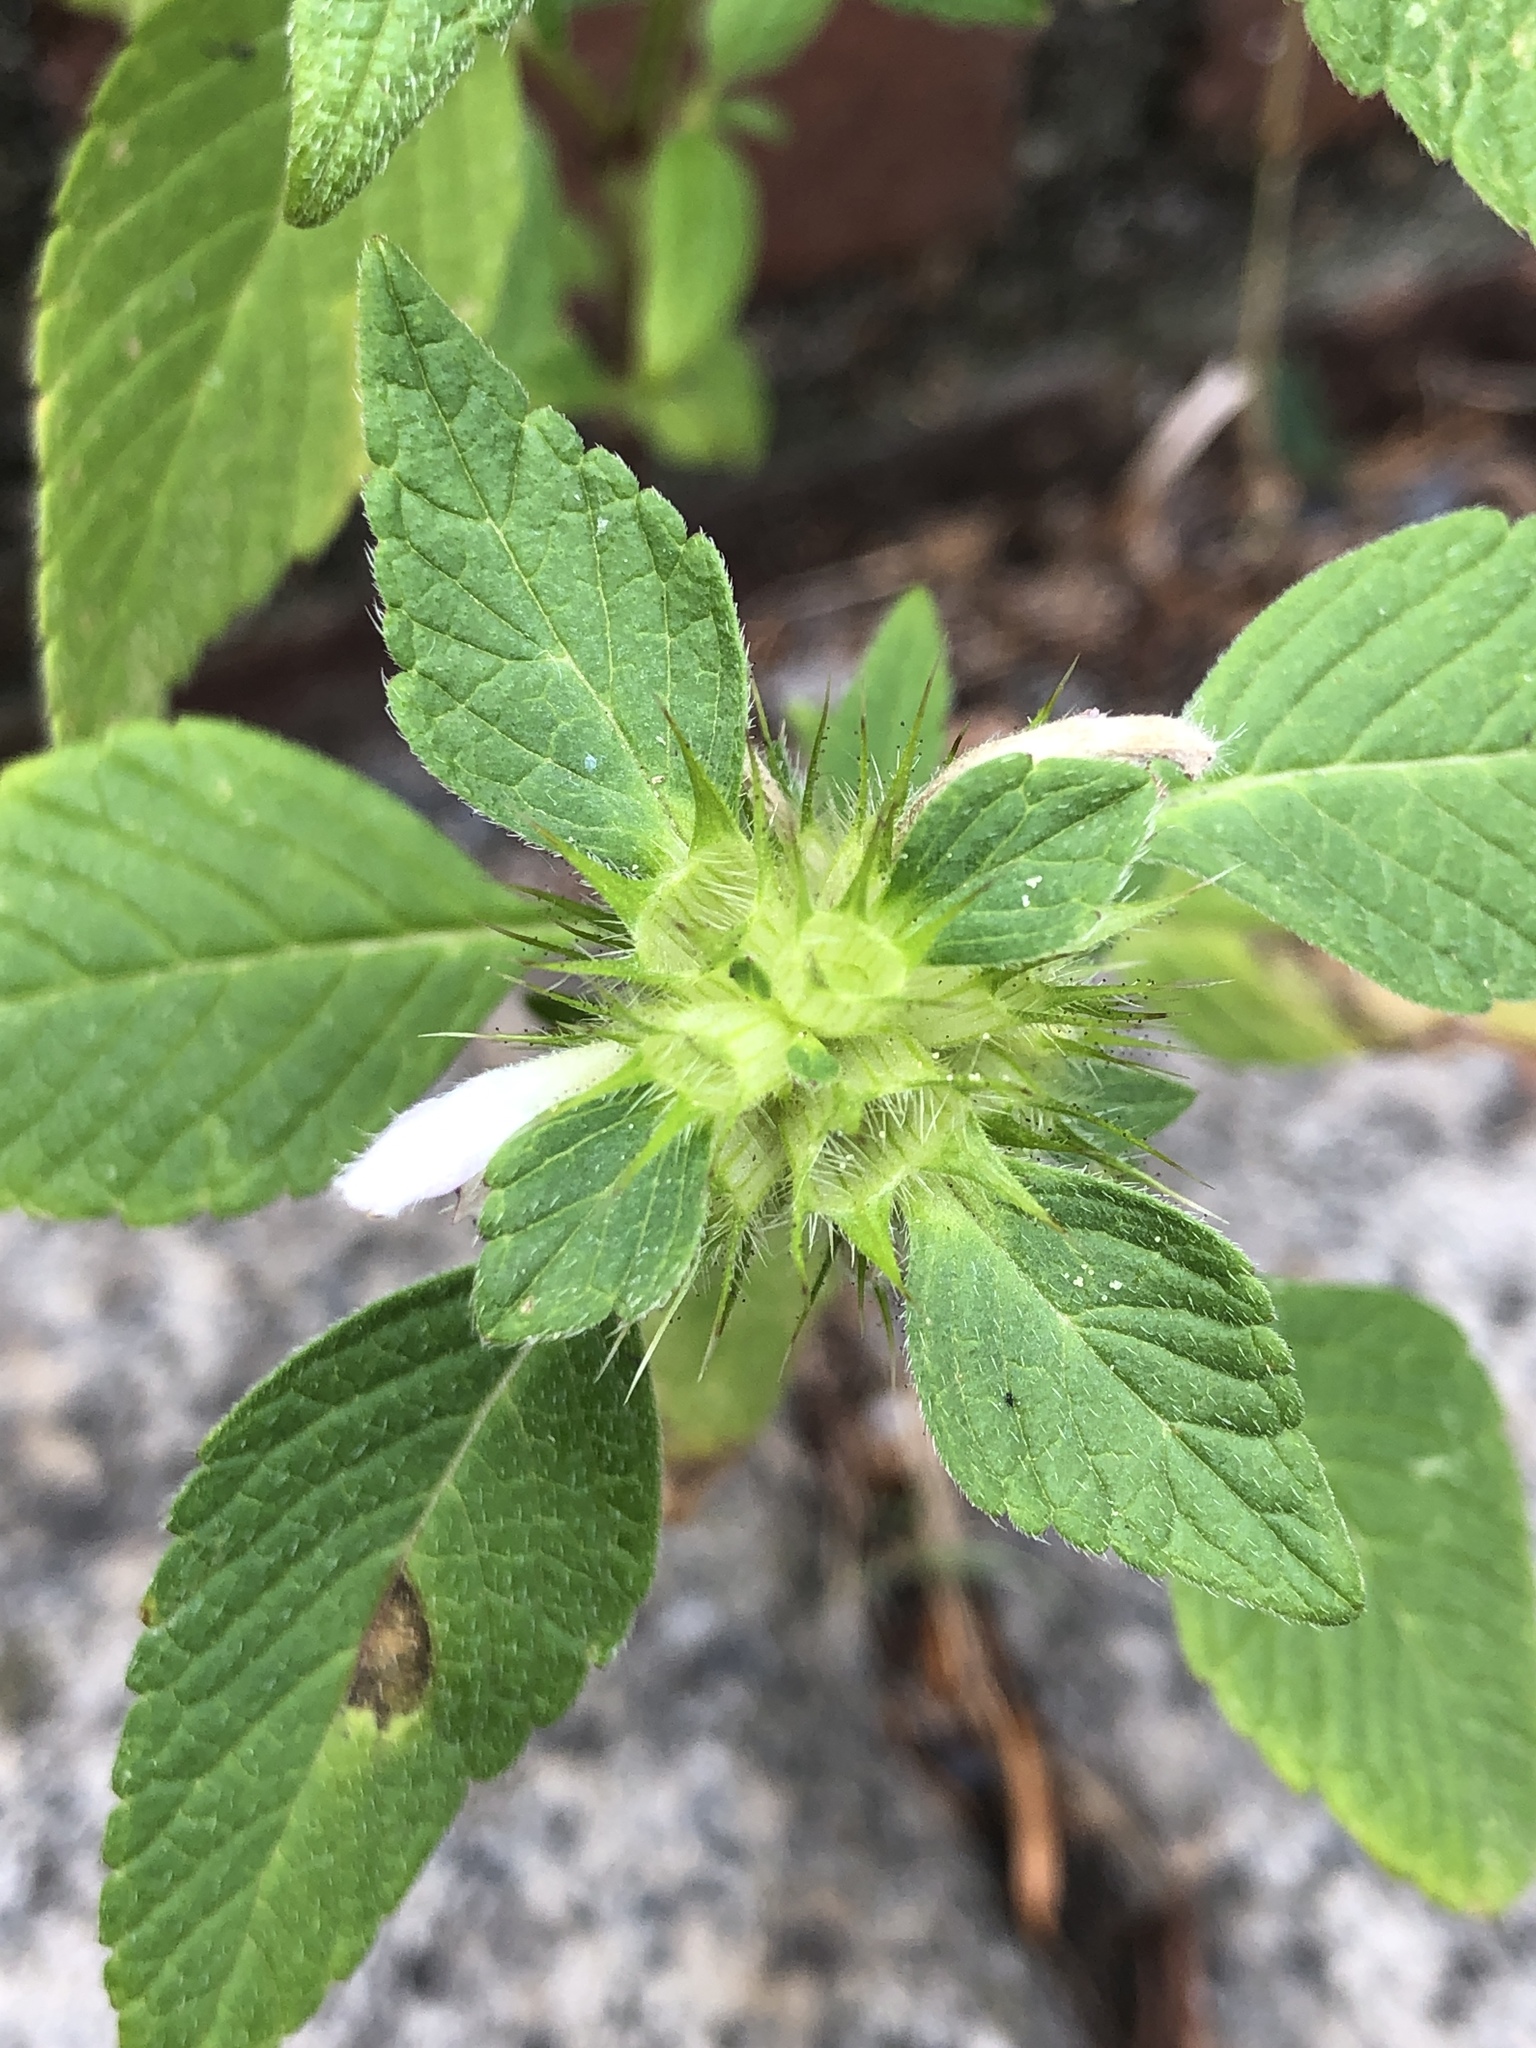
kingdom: Plantae
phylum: Tracheophyta
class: Magnoliopsida
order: Lamiales
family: Lamiaceae
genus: Galeopsis
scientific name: Galeopsis tetrahit
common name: Common hemp-nettle
